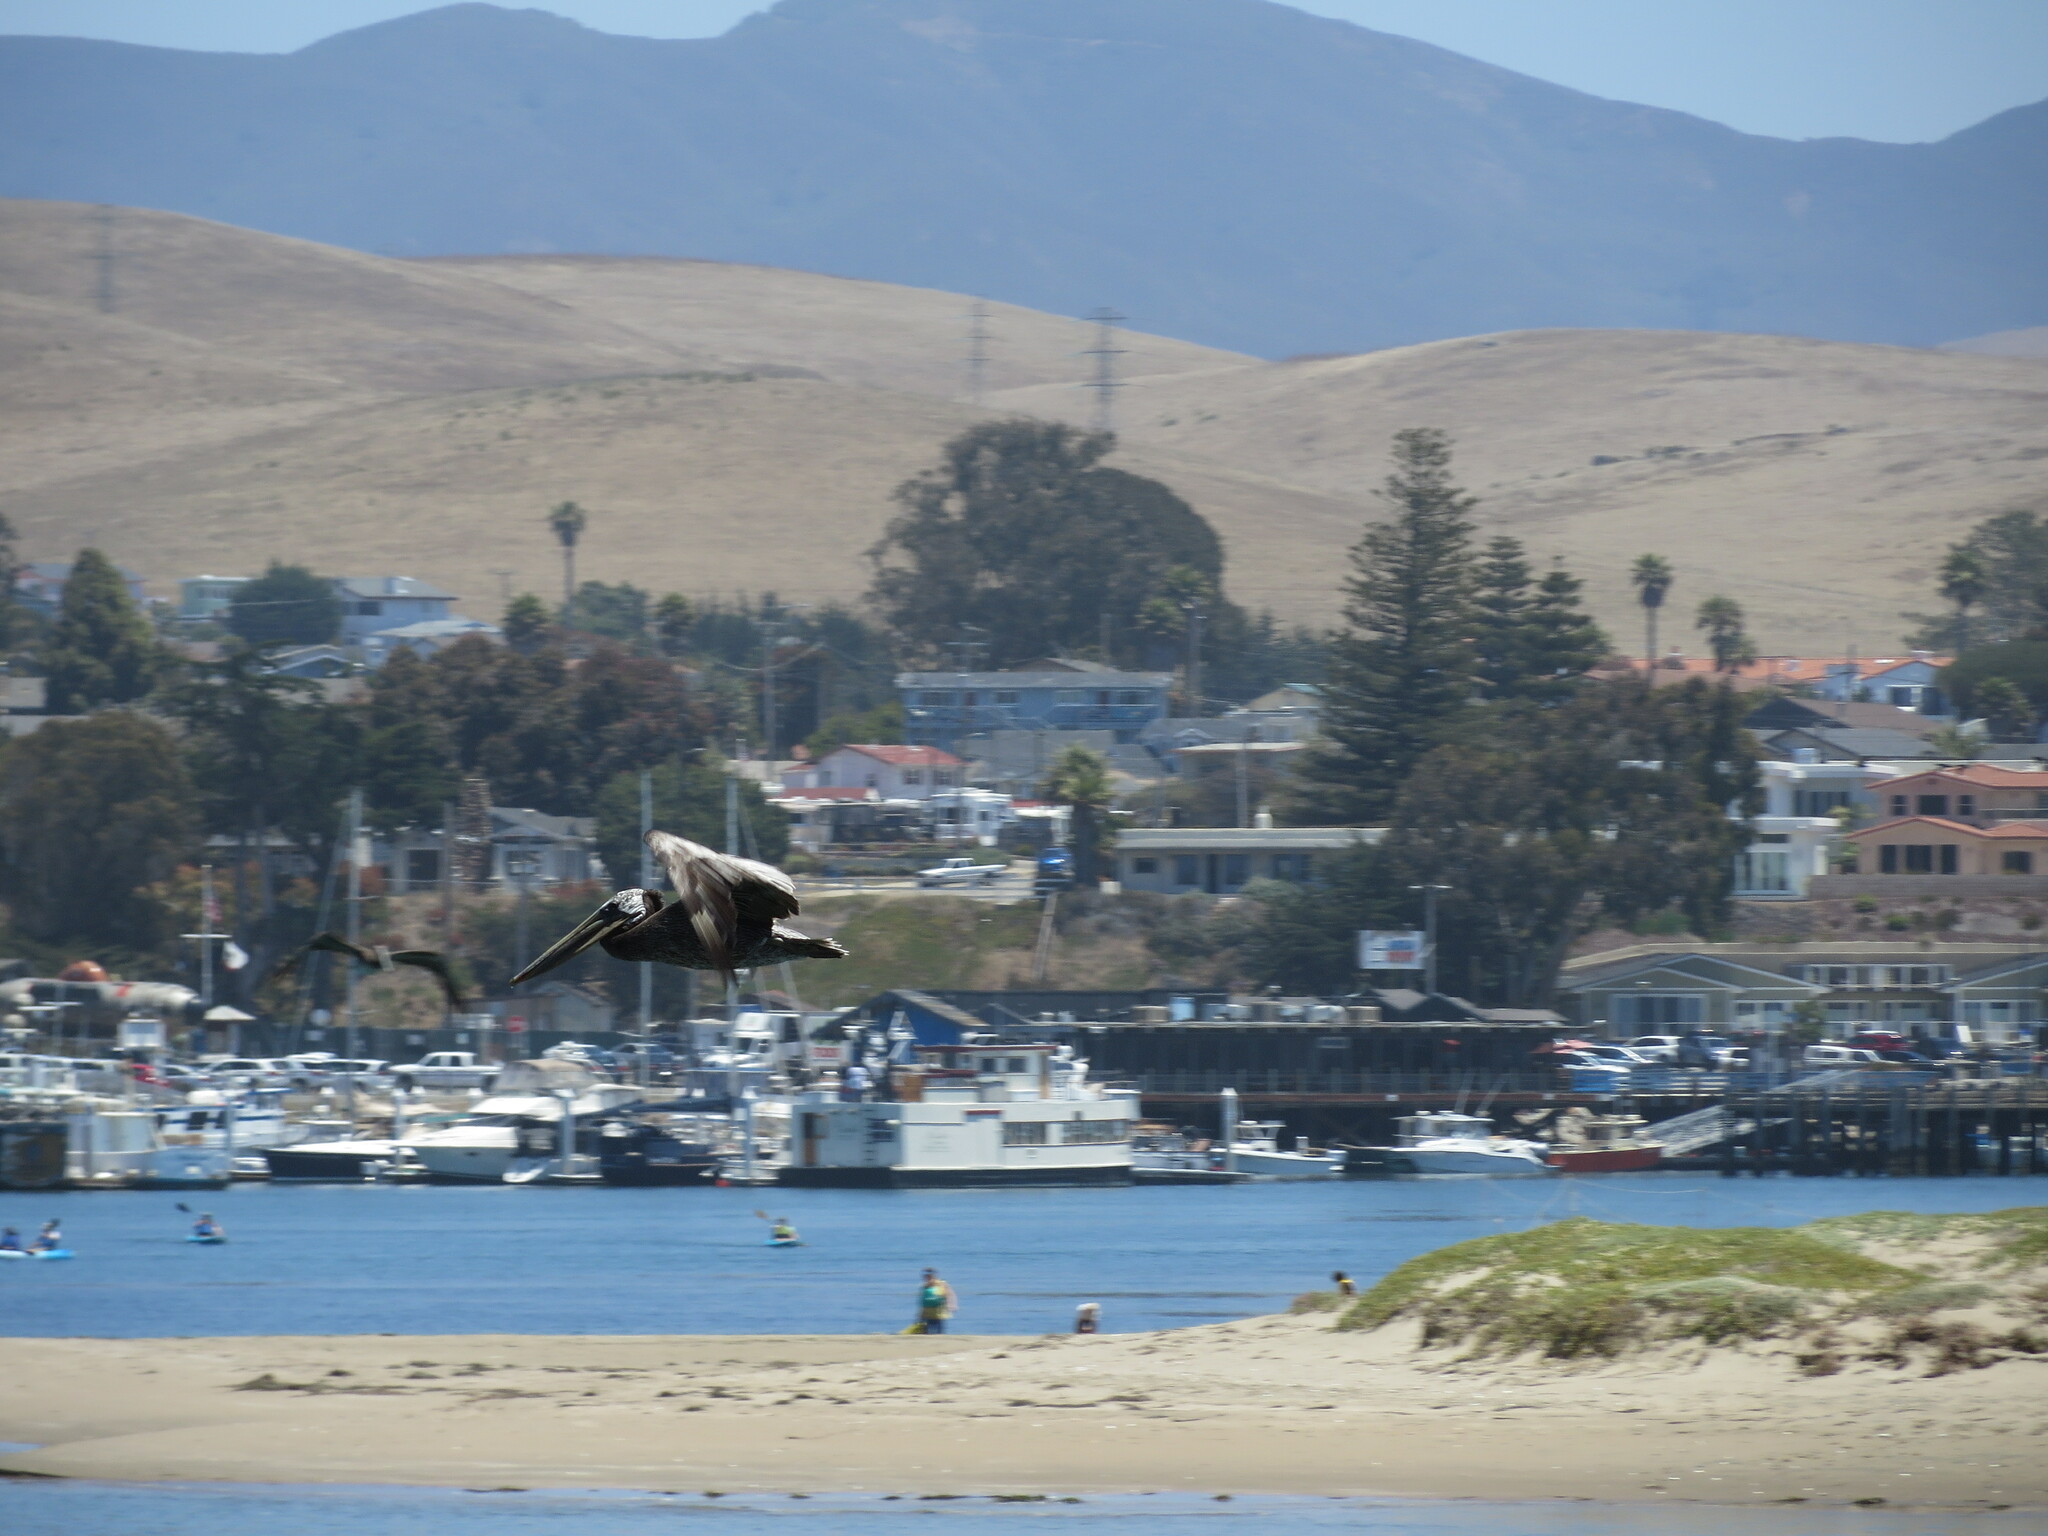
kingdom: Animalia
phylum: Chordata
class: Aves
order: Pelecaniformes
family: Pelecanidae
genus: Pelecanus
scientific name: Pelecanus occidentalis
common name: Brown pelican
